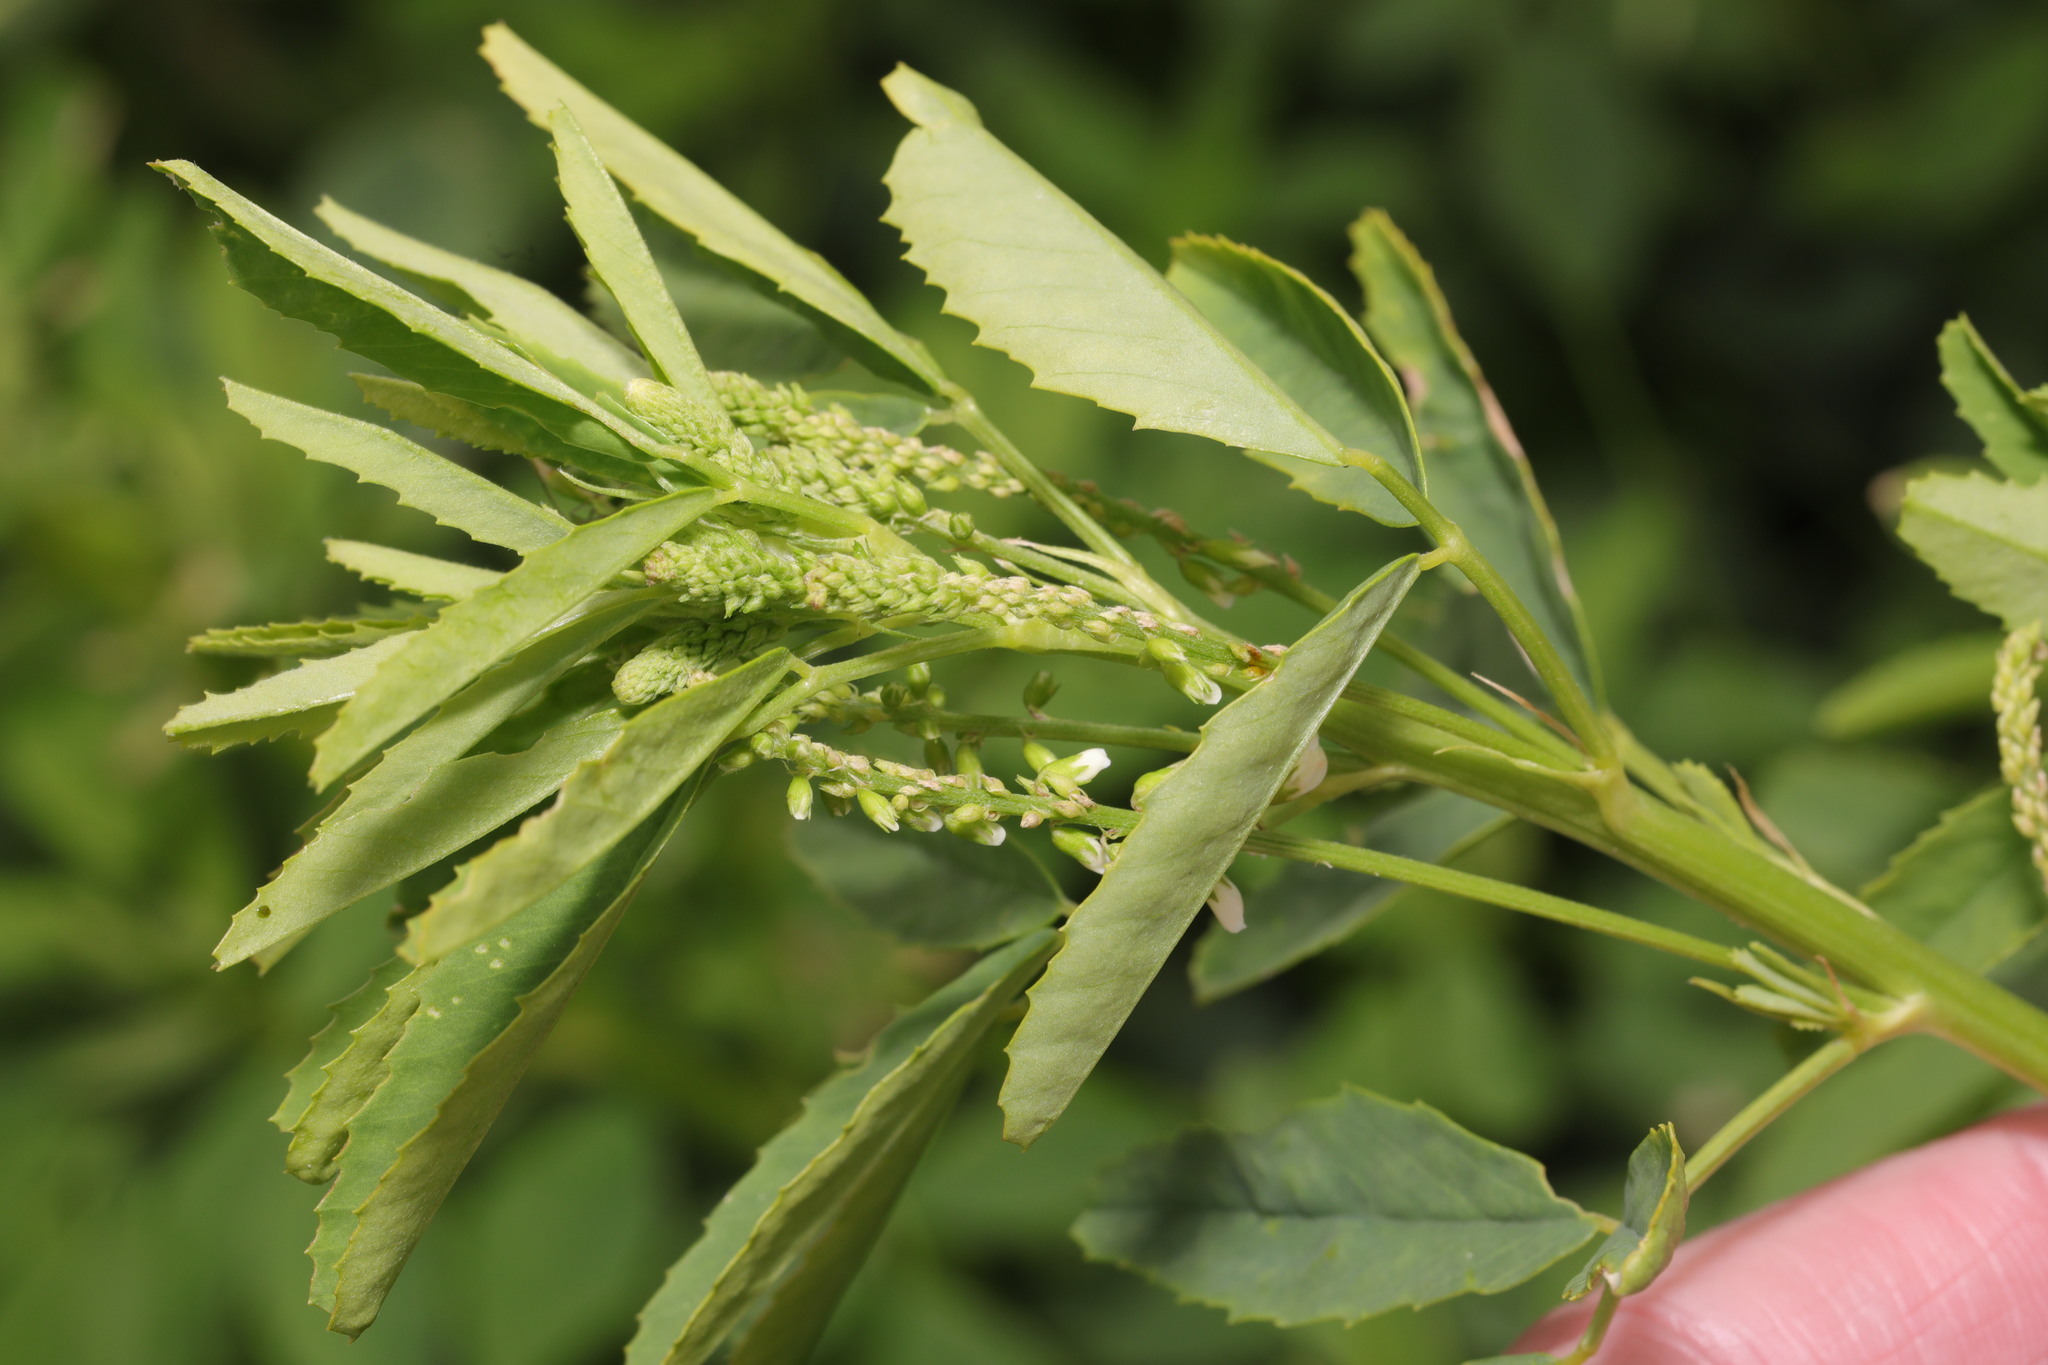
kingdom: Plantae
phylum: Tracheophyta
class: Magnoliopsida
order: Fabales
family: Fabaceae
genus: Melilotus
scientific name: Melilotus albus
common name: White melilot
